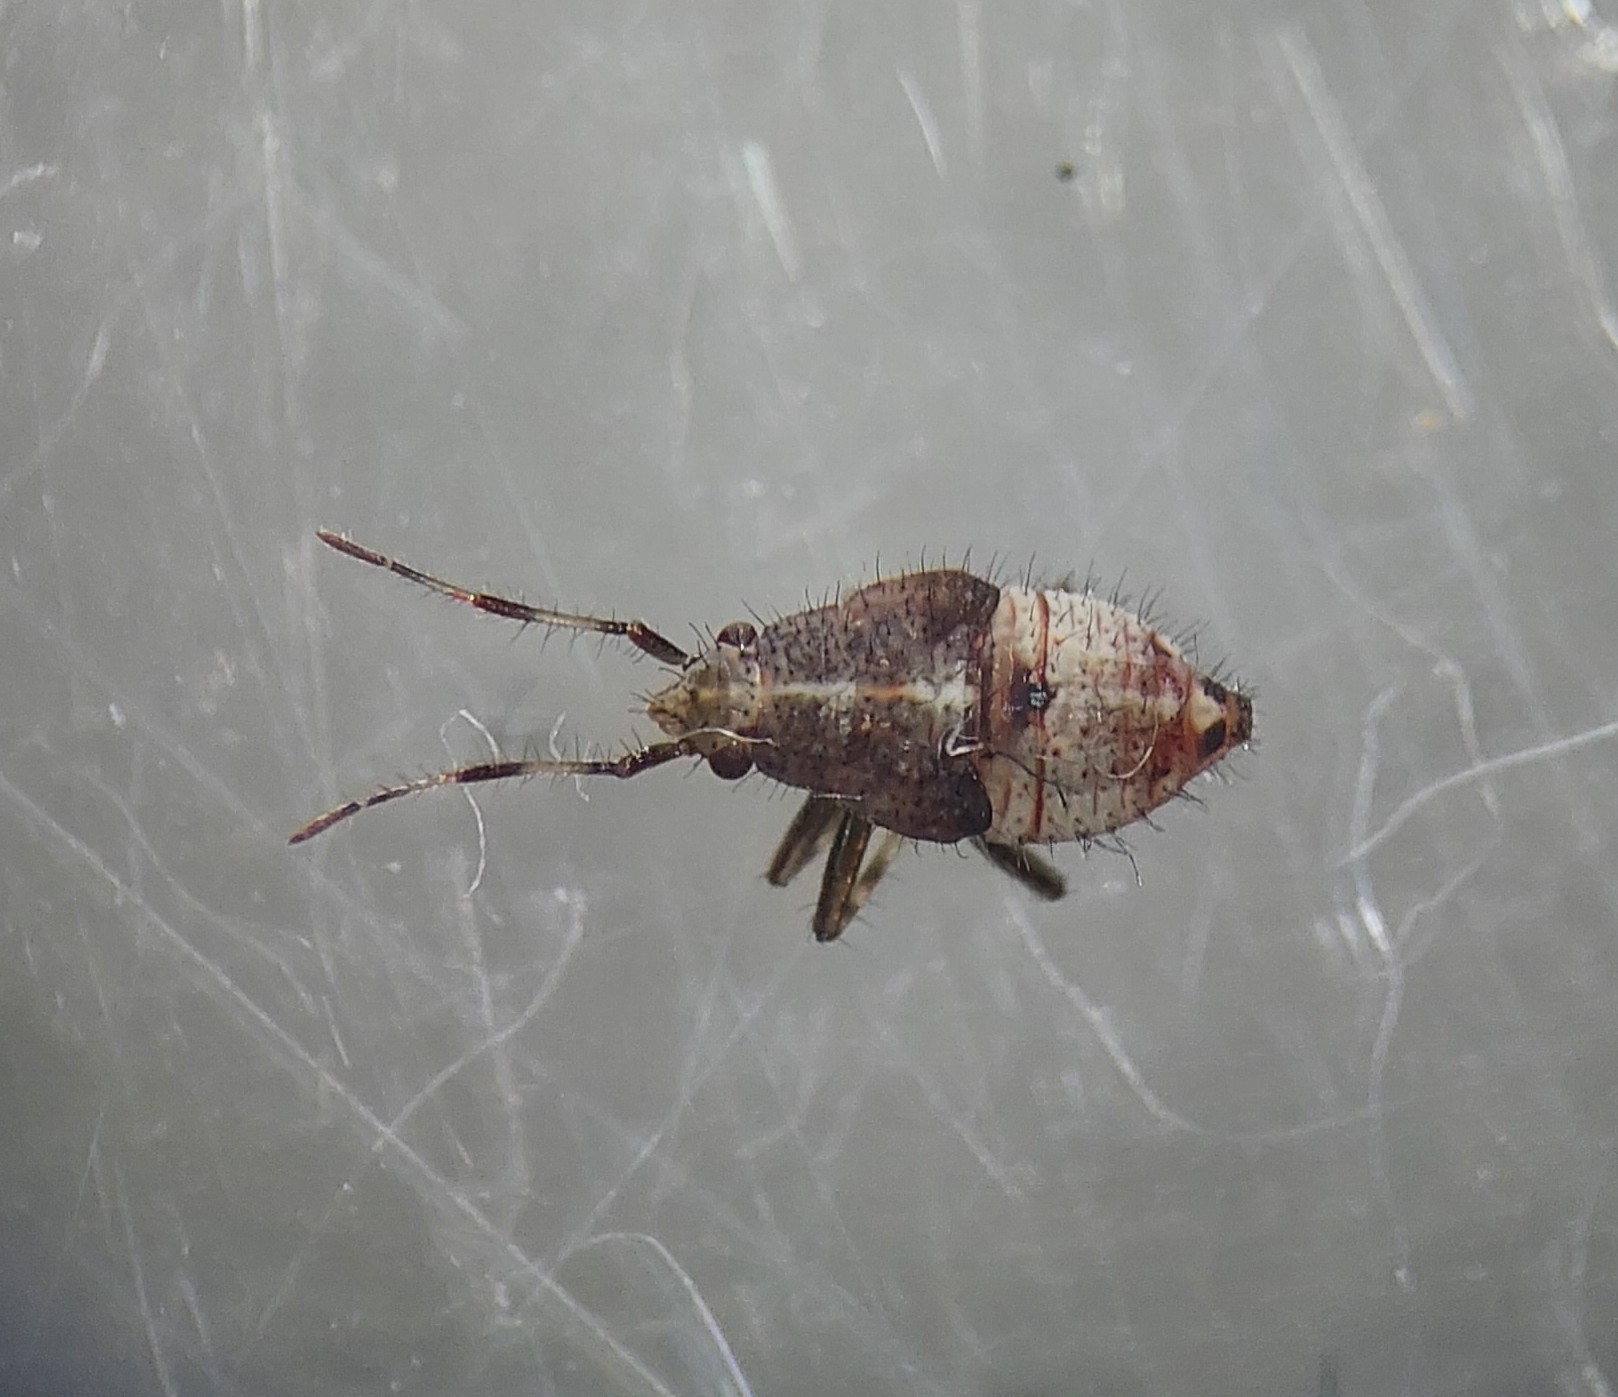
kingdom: Animalia
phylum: Arthropoda
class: Insecta
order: Hemiptera
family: Miridae
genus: Deraeocoris
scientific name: Deraeocoris flavilinea
